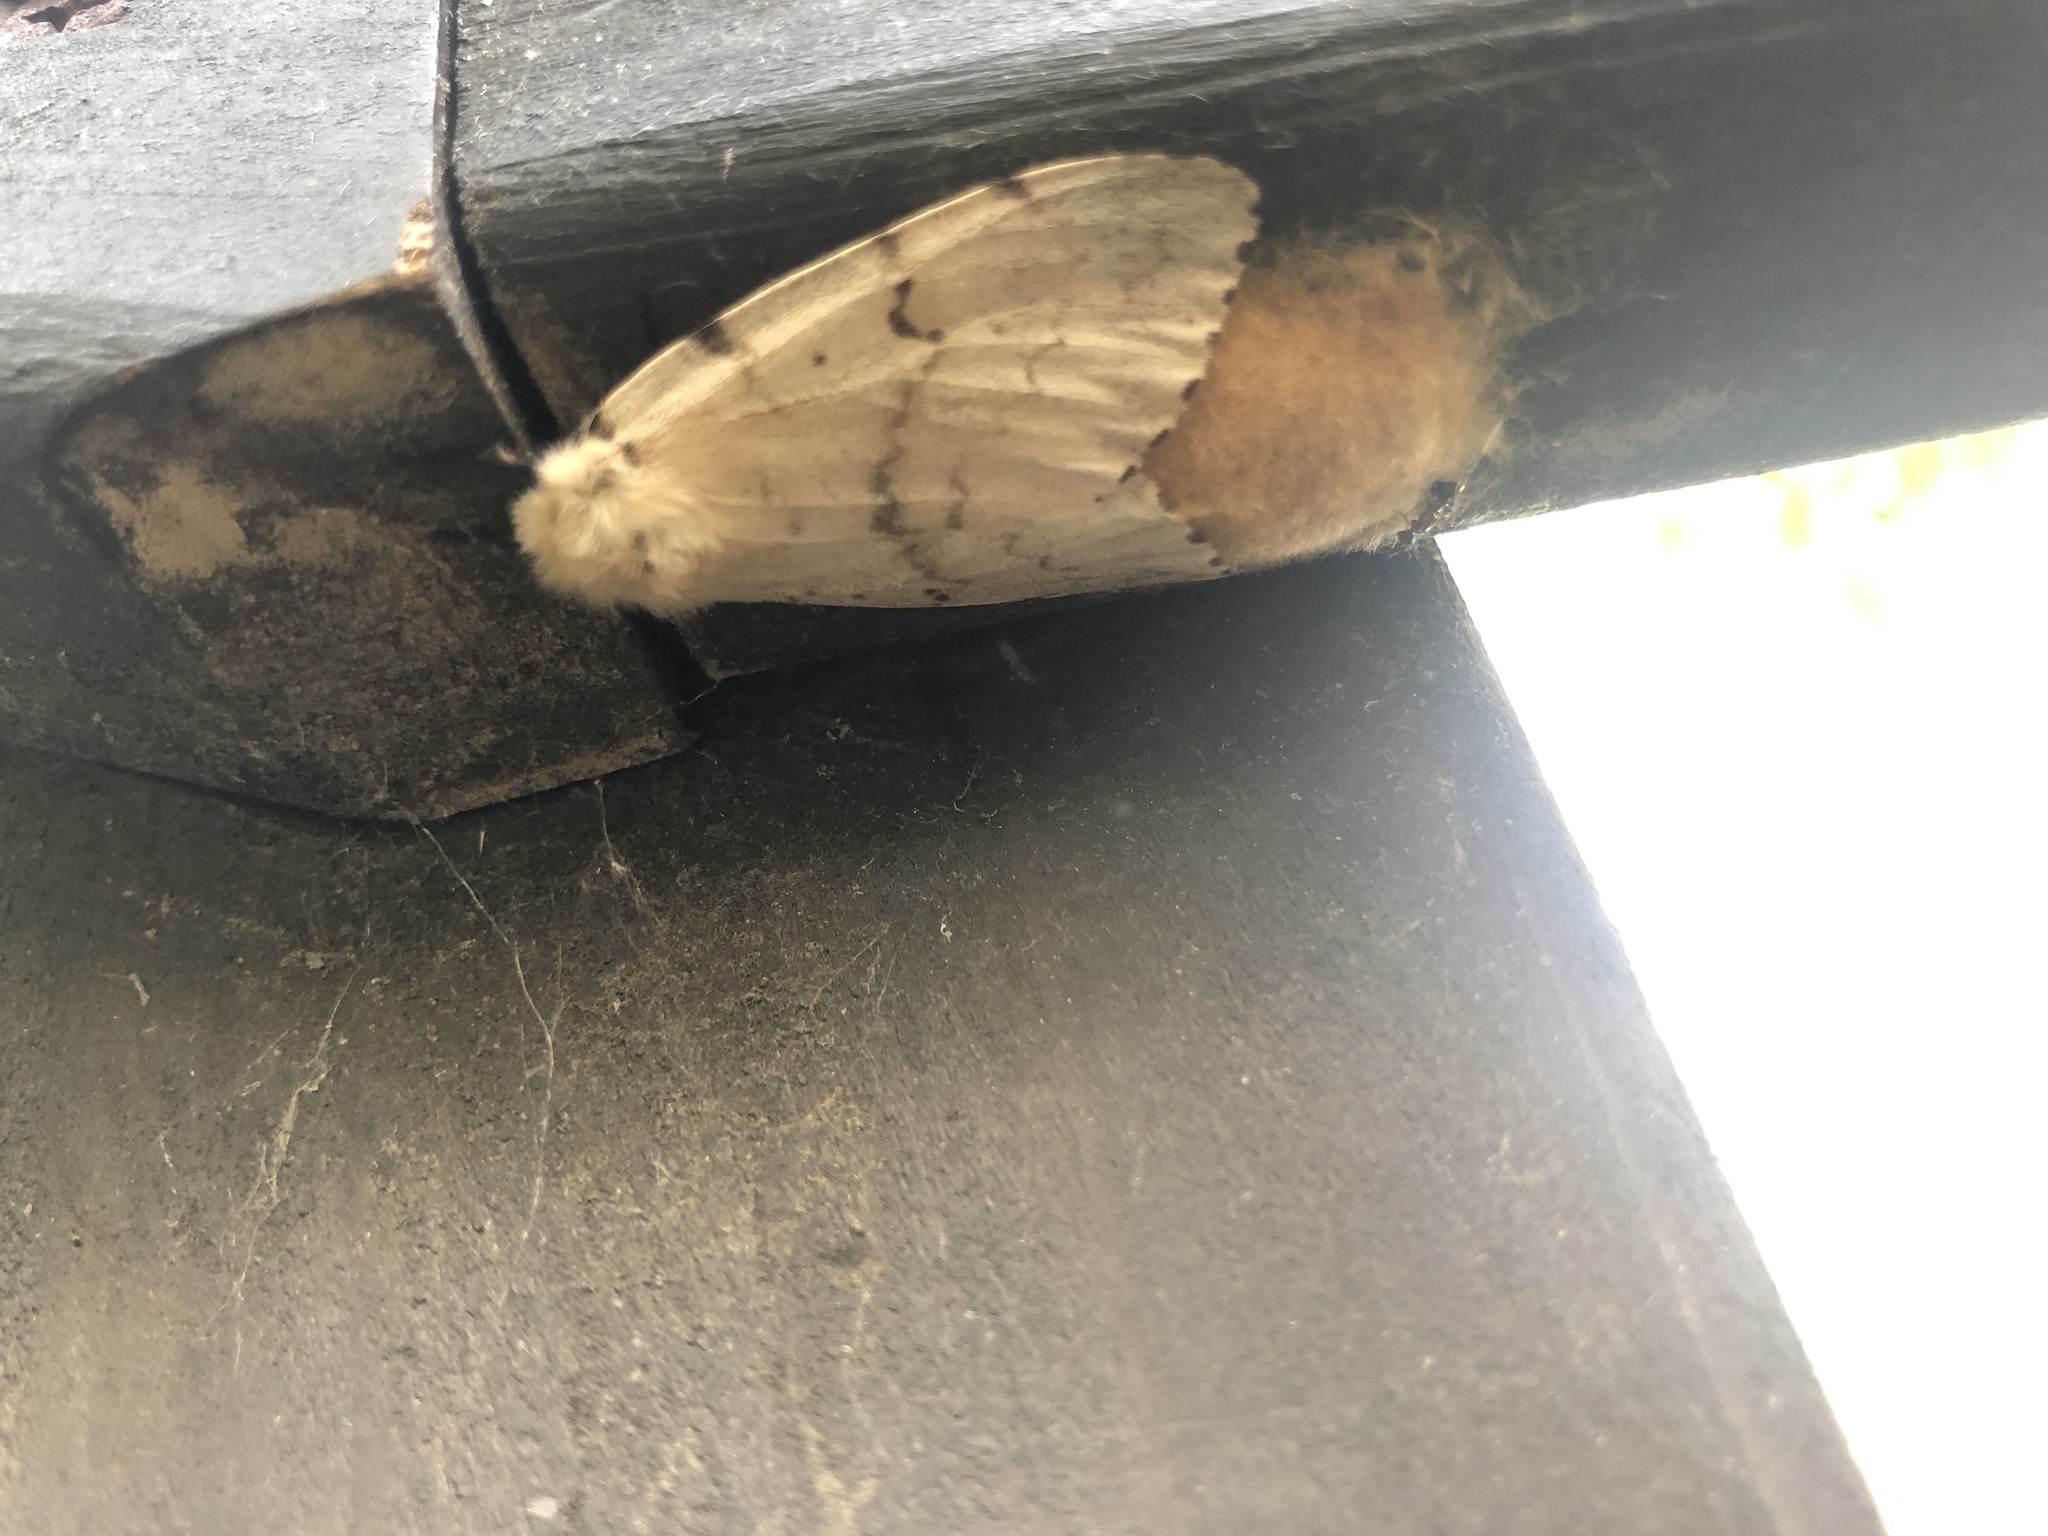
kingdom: Animalia
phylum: Arthropoda
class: Insecta
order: Lepidoptera
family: Erebidae
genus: Lymantria
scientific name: Lymantria dispar
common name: Gypsy moth
